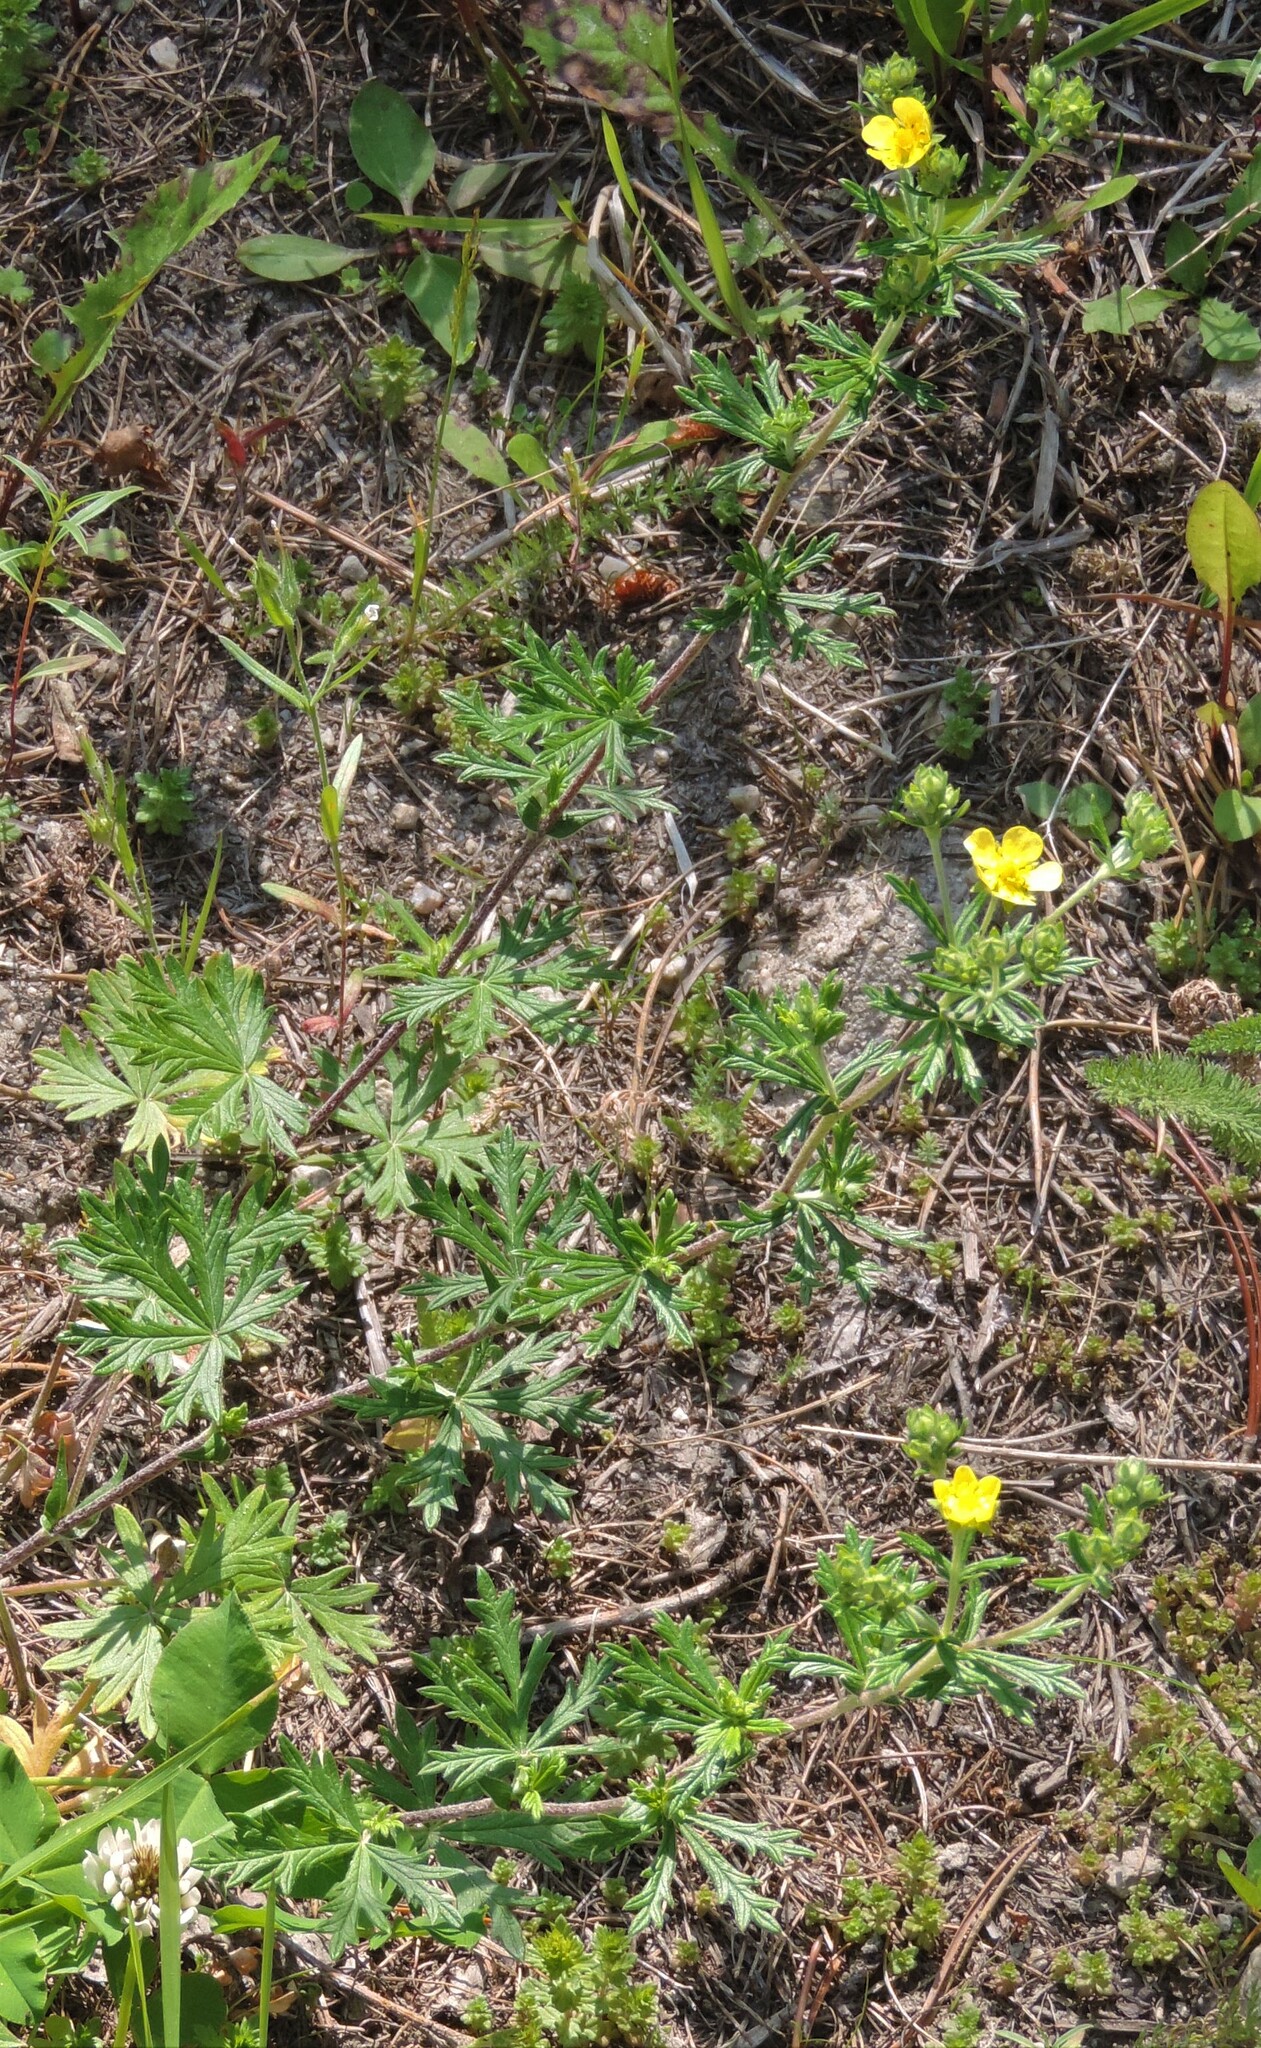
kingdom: Plantae
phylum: Tracheophyta
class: Magnoliopsida
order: Rosales
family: Rosaceae
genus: Potentilla
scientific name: Potentilla argentea
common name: Hoary cinquefoil
